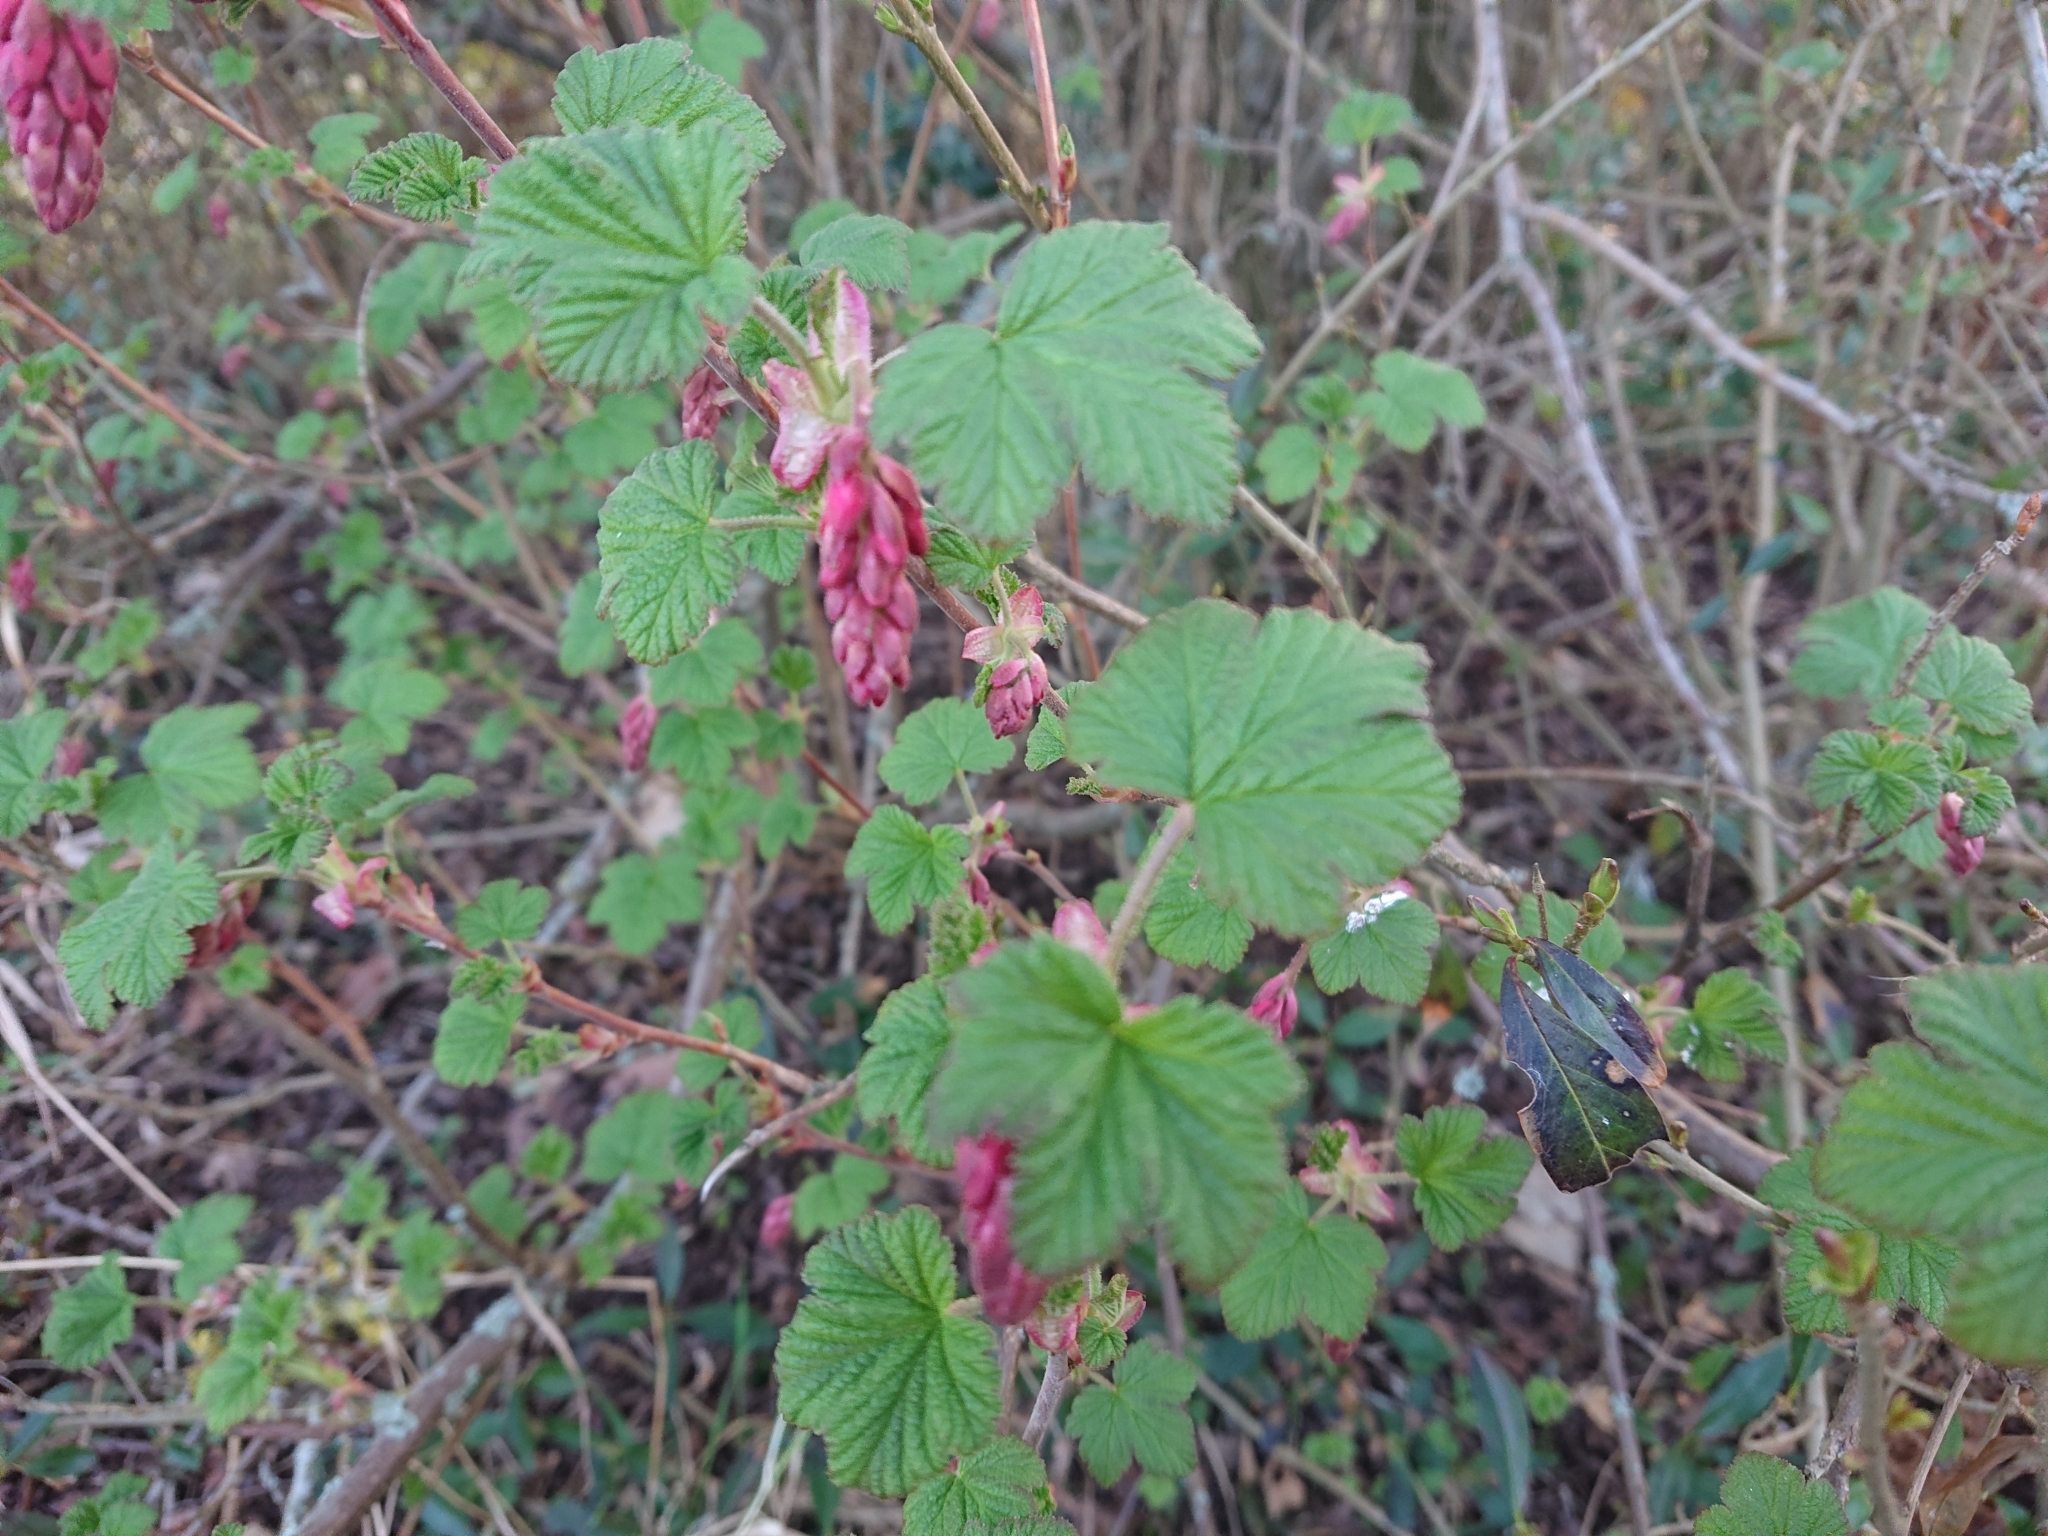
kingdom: Plantae
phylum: Tracheophyta
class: Magnoliopsida
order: Saxifragales
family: Grossulariaceae
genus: Ribes
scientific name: Ribes sanguineum
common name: Flowering currant
